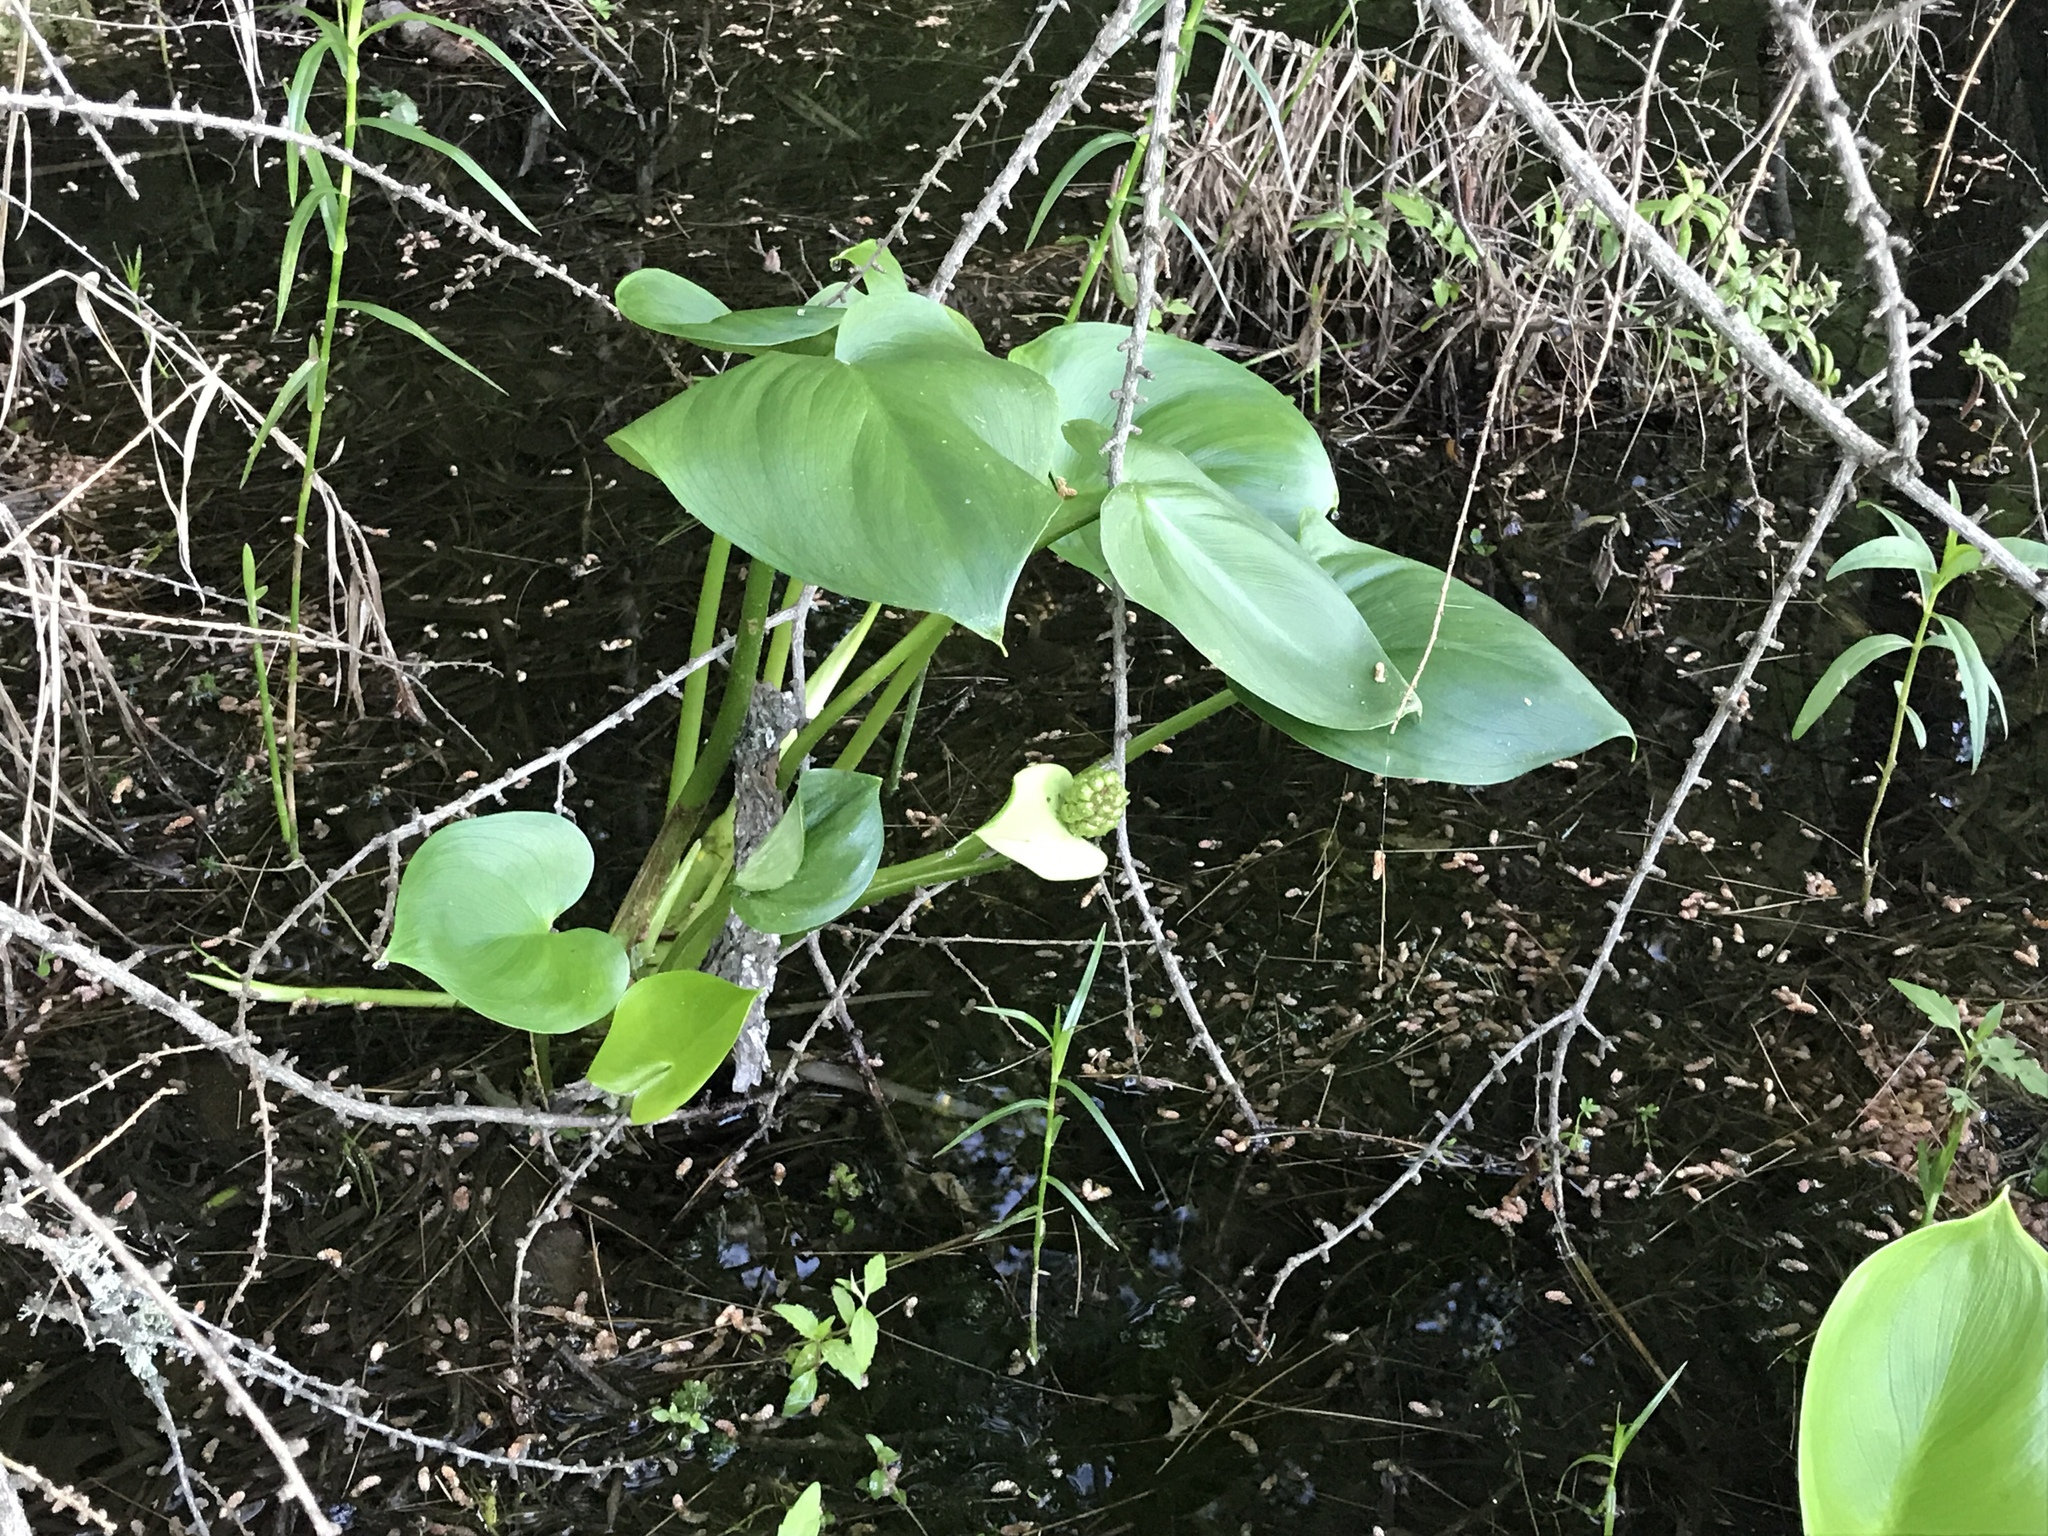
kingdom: Plantae
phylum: Tracheophyta
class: Liliopsida
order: Alismatales
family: Araceae
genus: Calla
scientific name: Calla palustris
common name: Bog arum
